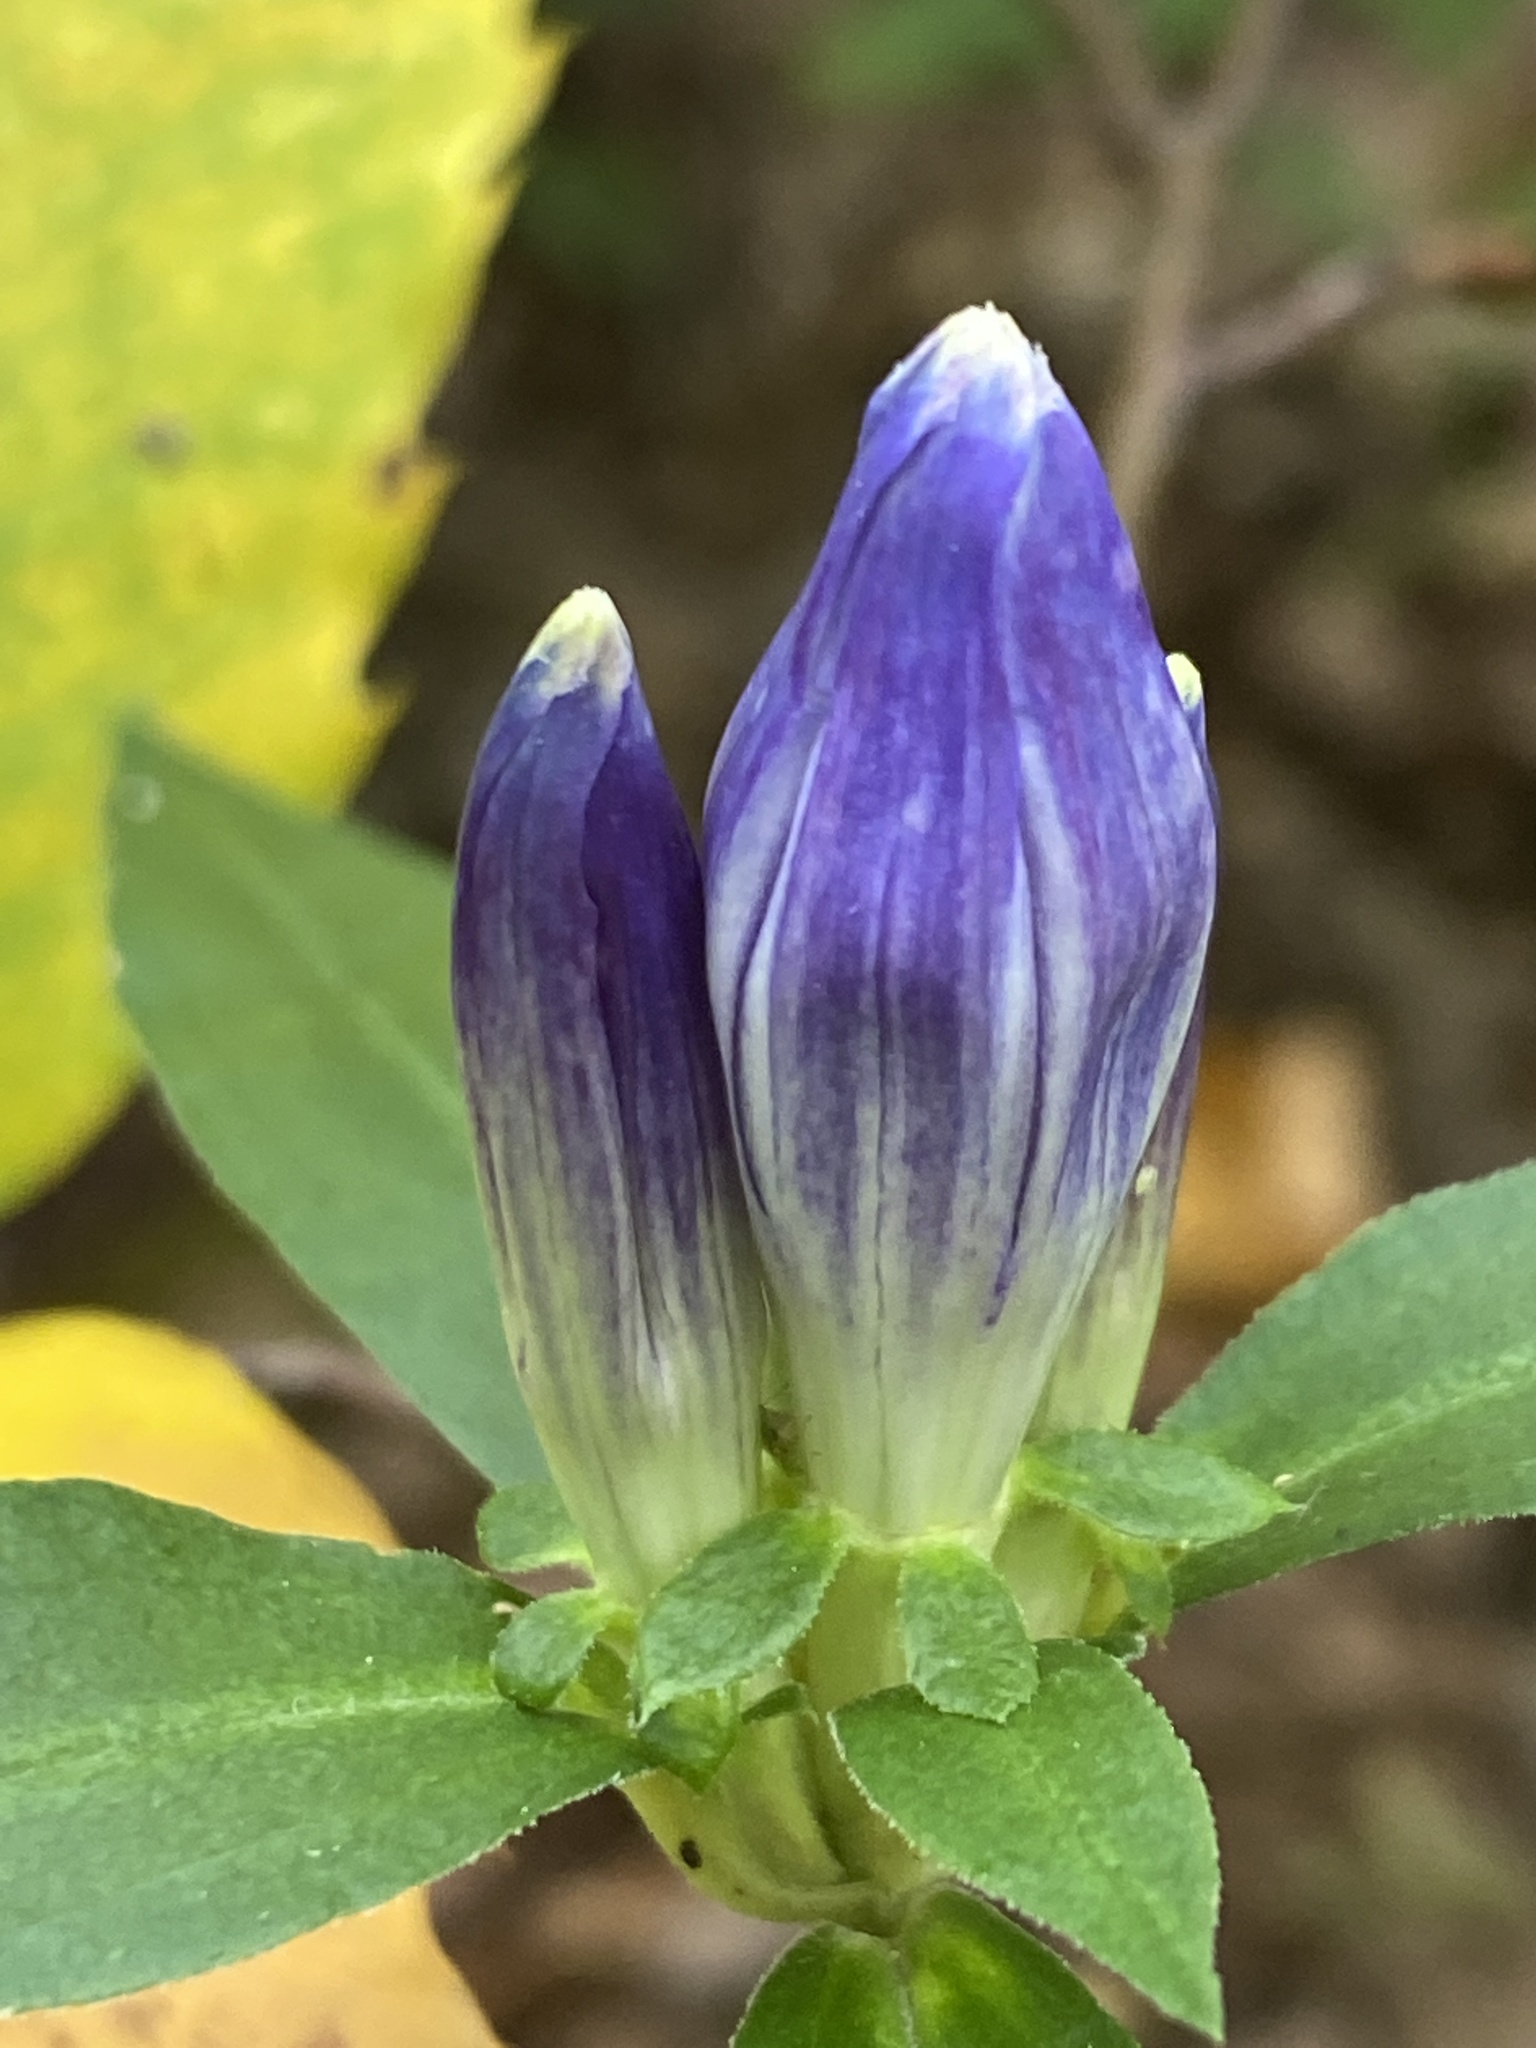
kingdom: Plantae
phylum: Tracheophyta
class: Magnoliopsida
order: Gentianales
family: Gentianaceae
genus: Gentiana
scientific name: Gentiana clausa
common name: Blind gentian
